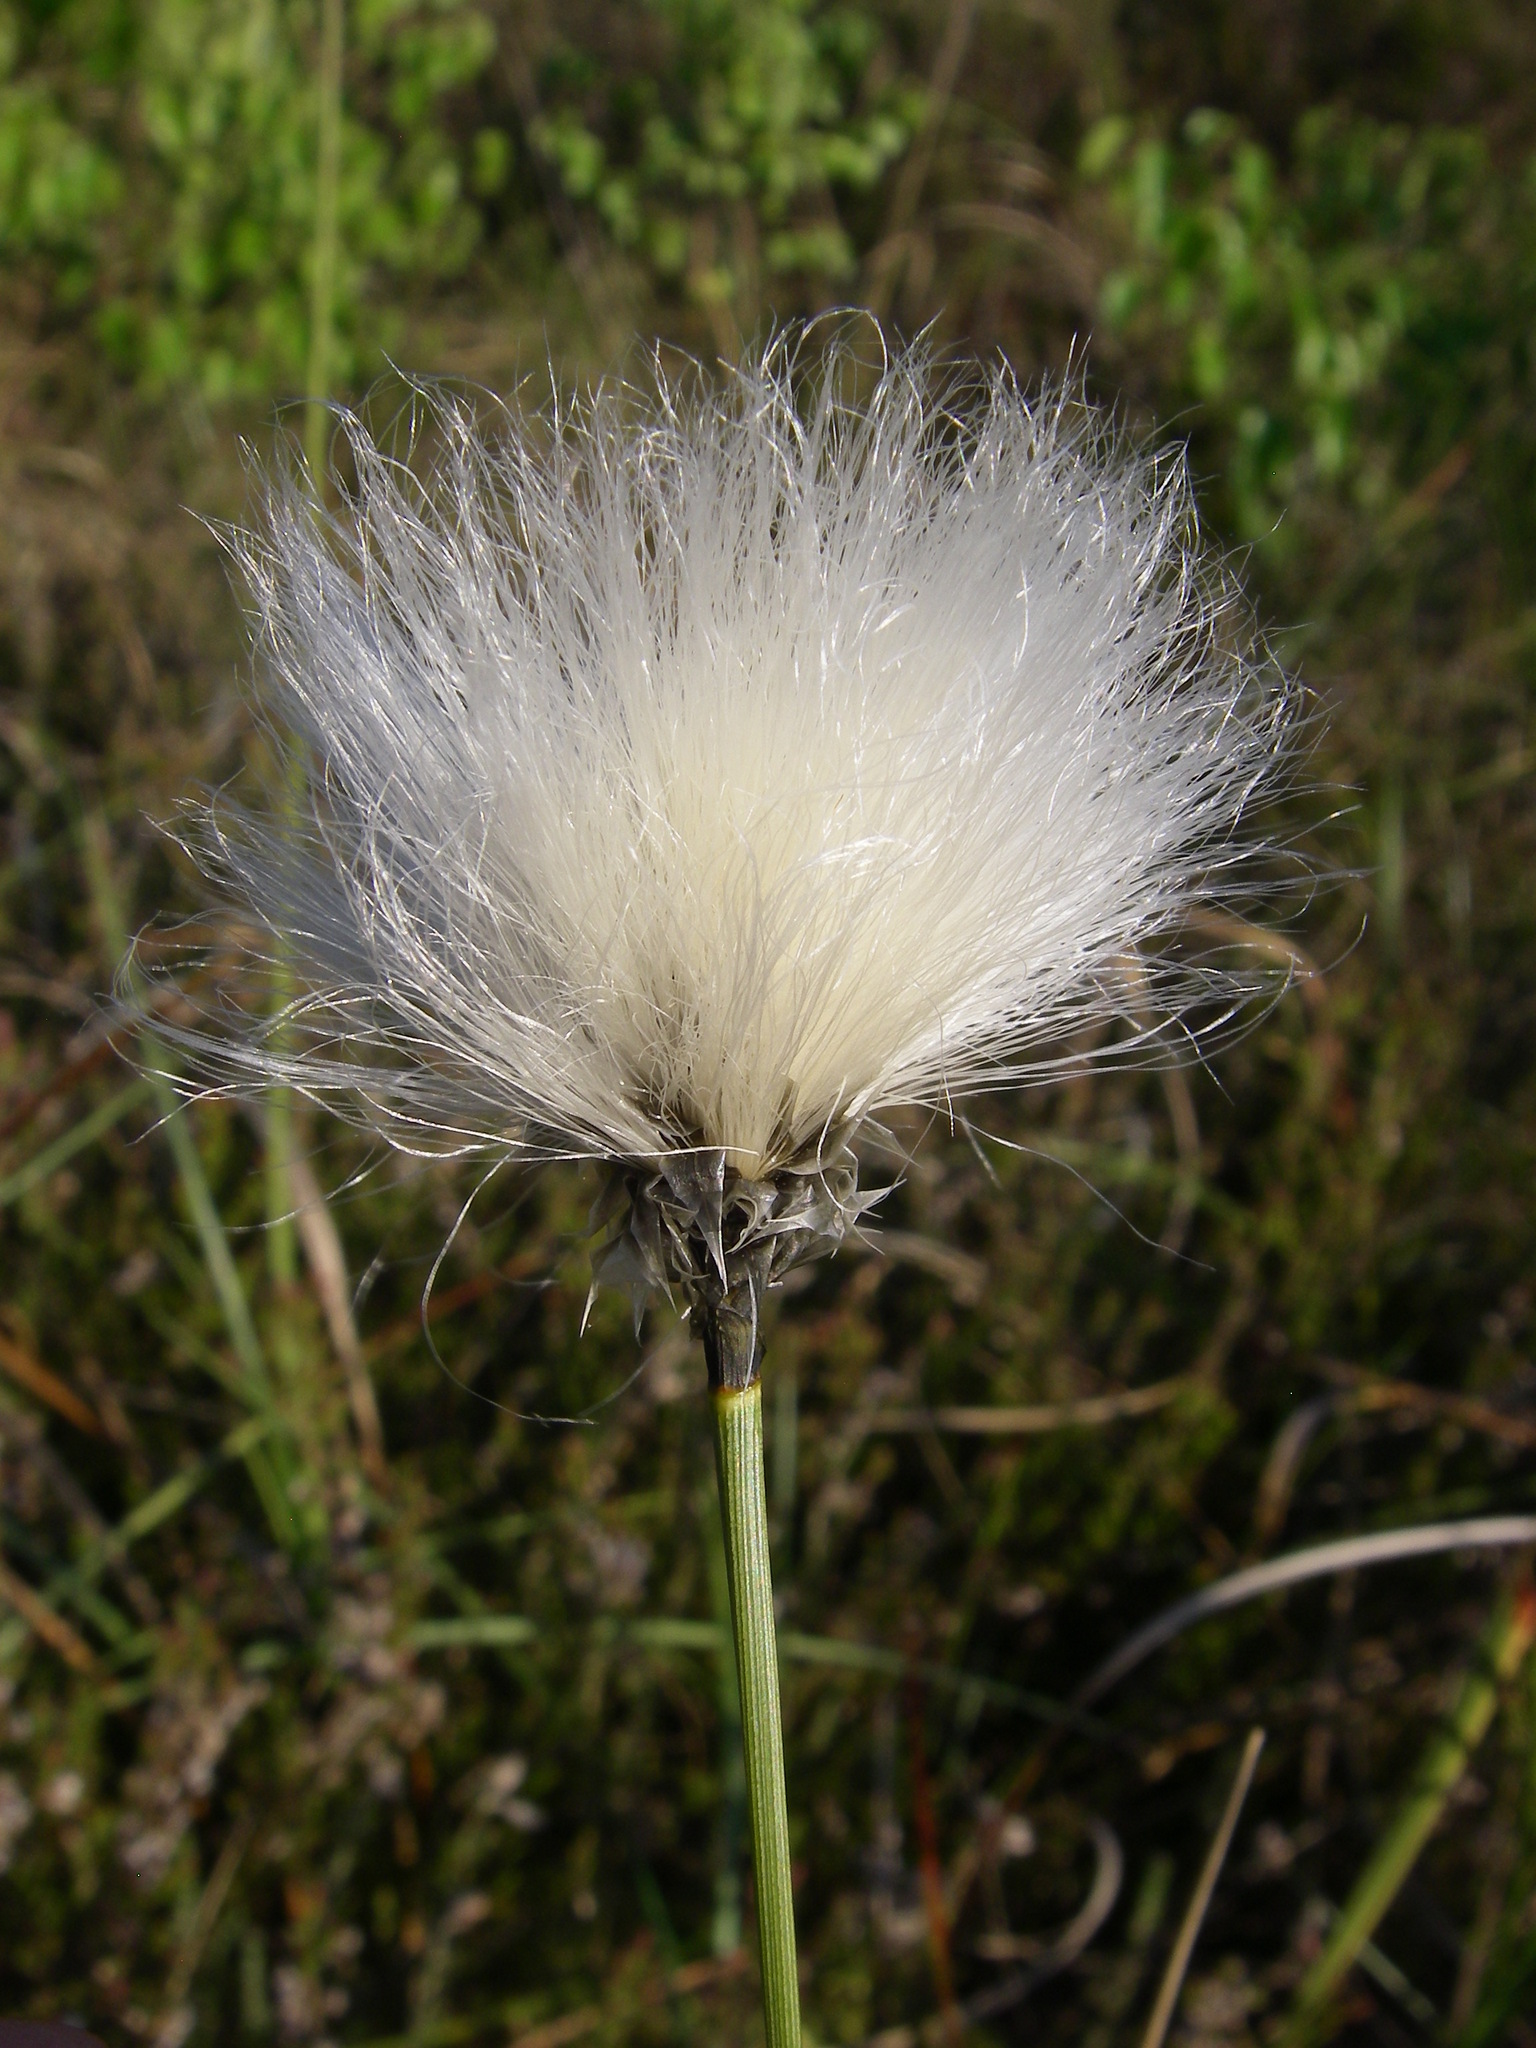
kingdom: Plantae
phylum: Tracheophyta
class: Liliopsida
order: Poales
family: Cyperaceae
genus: Eriophorum
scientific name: Eriophorum vaginatum
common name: Hare's-tail cottongrass
